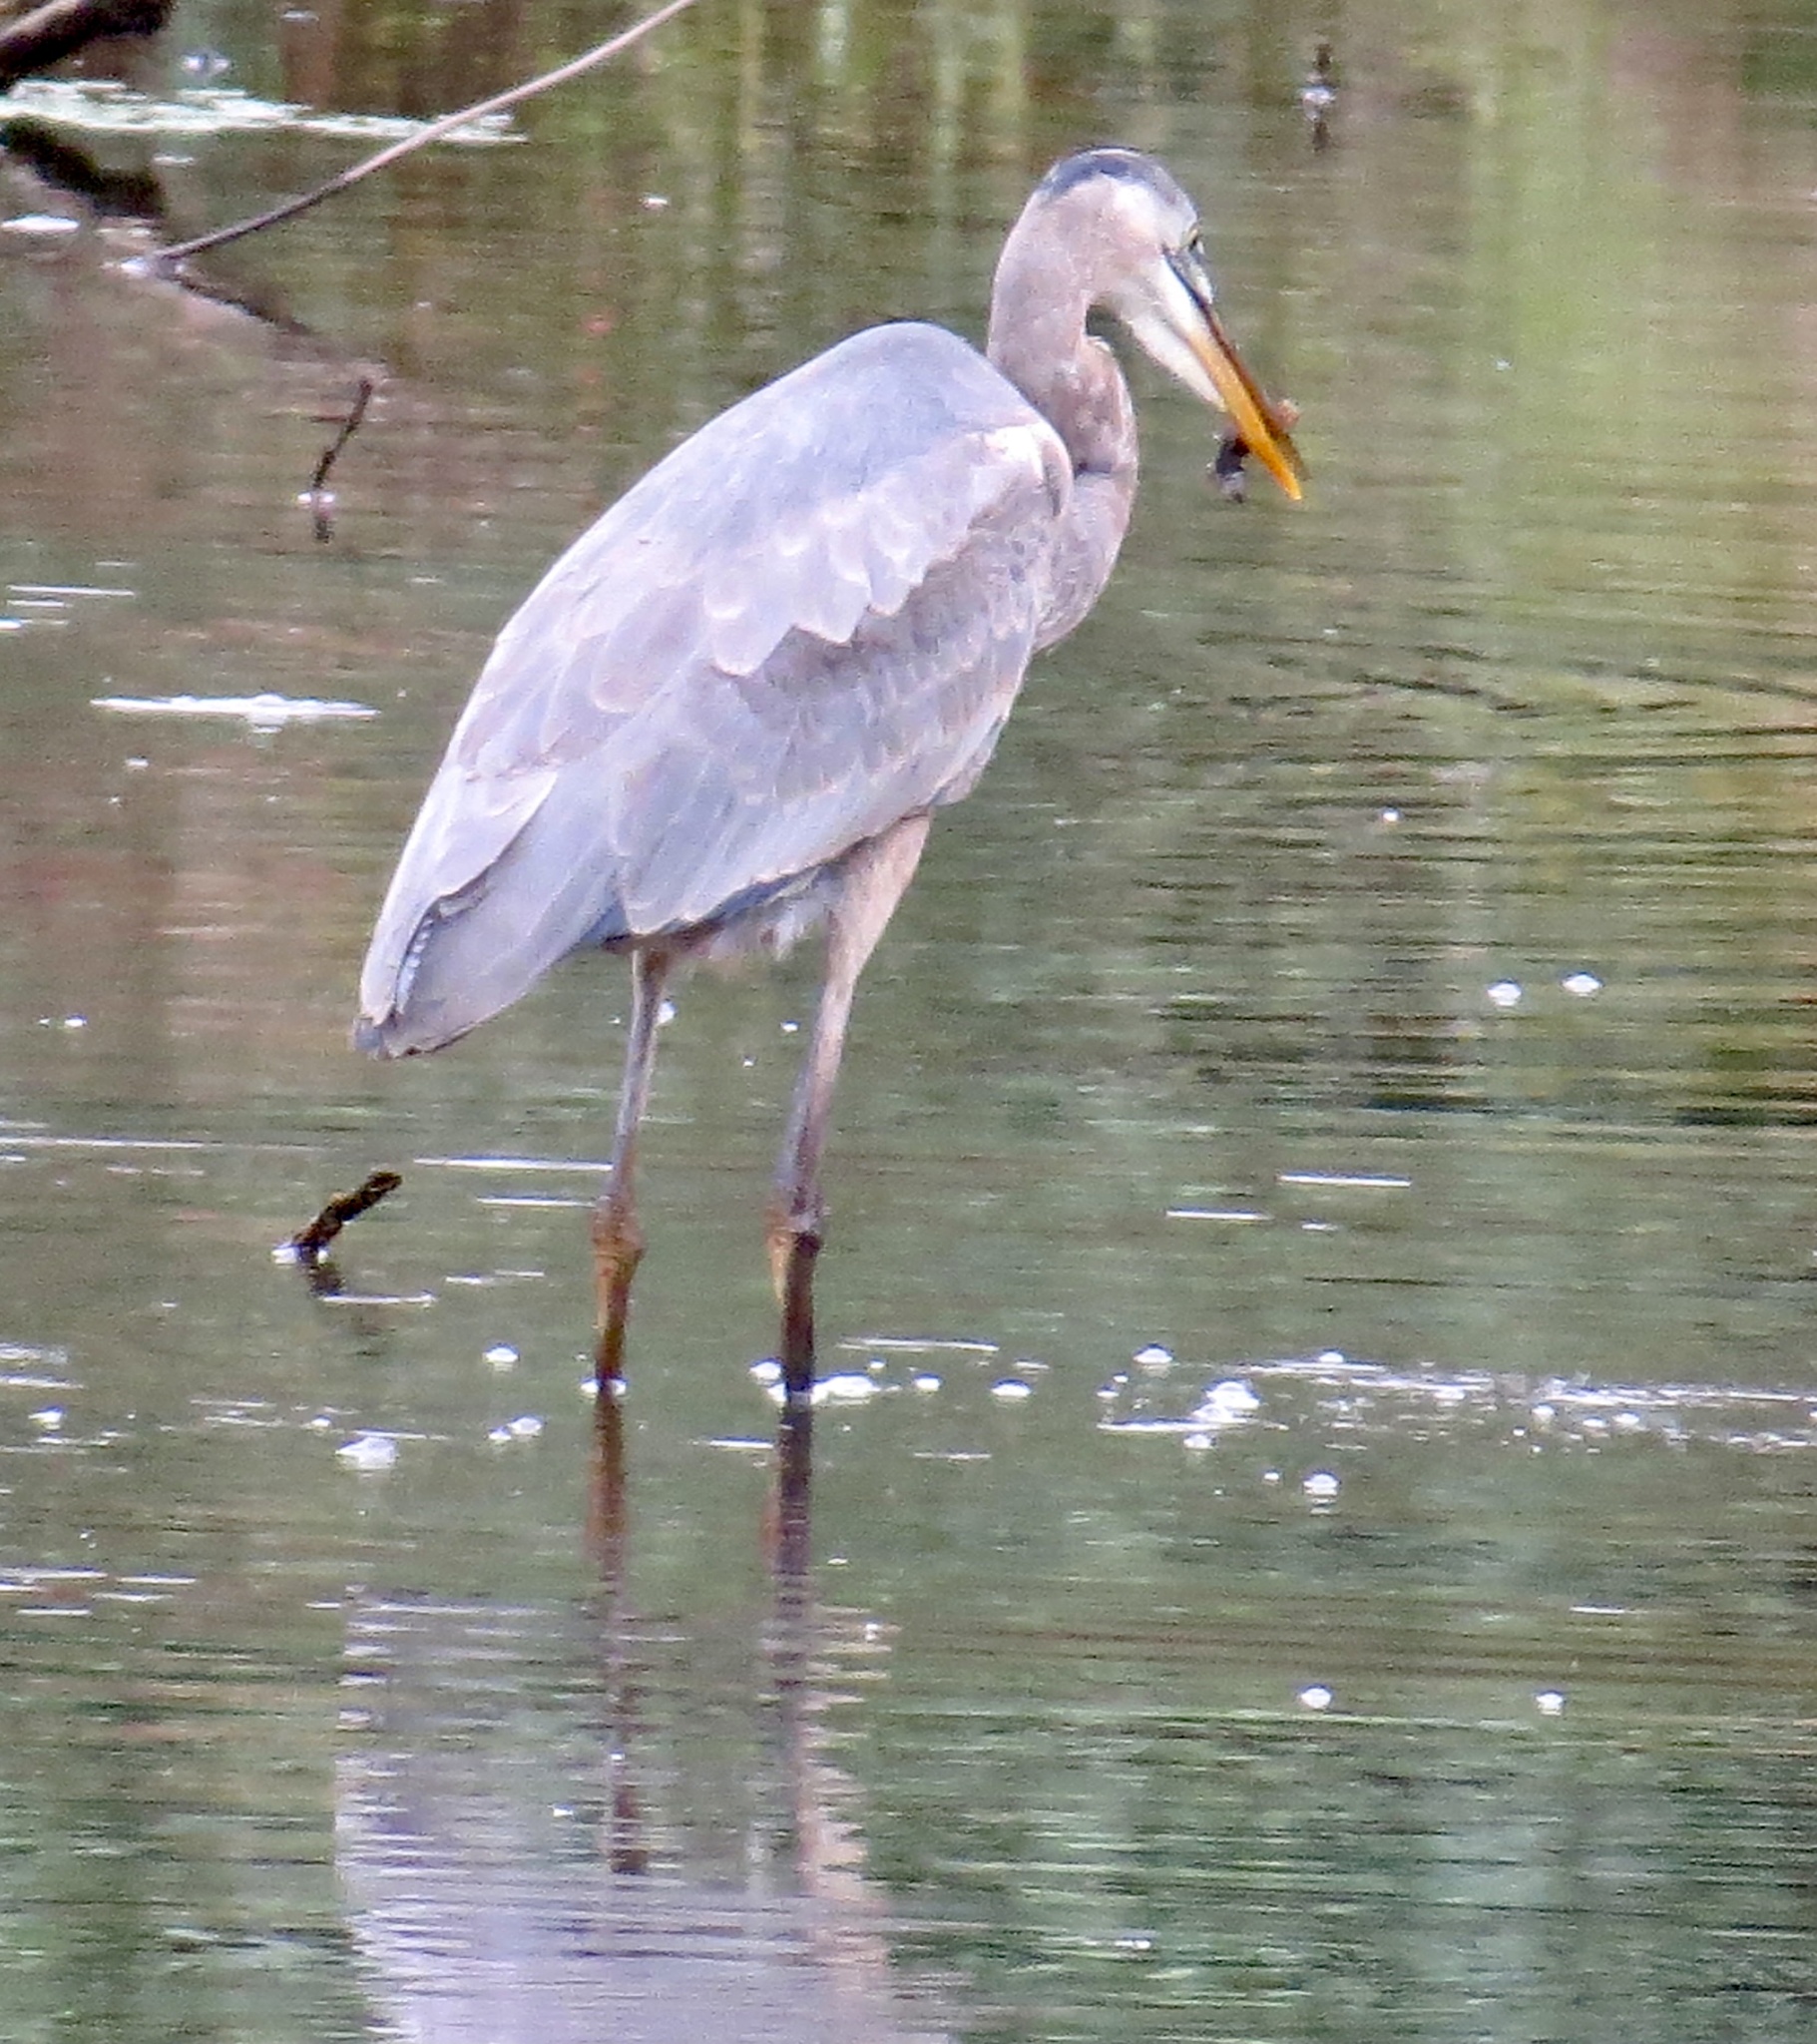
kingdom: Animalia
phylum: Chordata
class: Aves
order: Pelecaniformes
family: Ardeidae
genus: Ardea
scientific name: Ardea herodias
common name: Great blue heron
